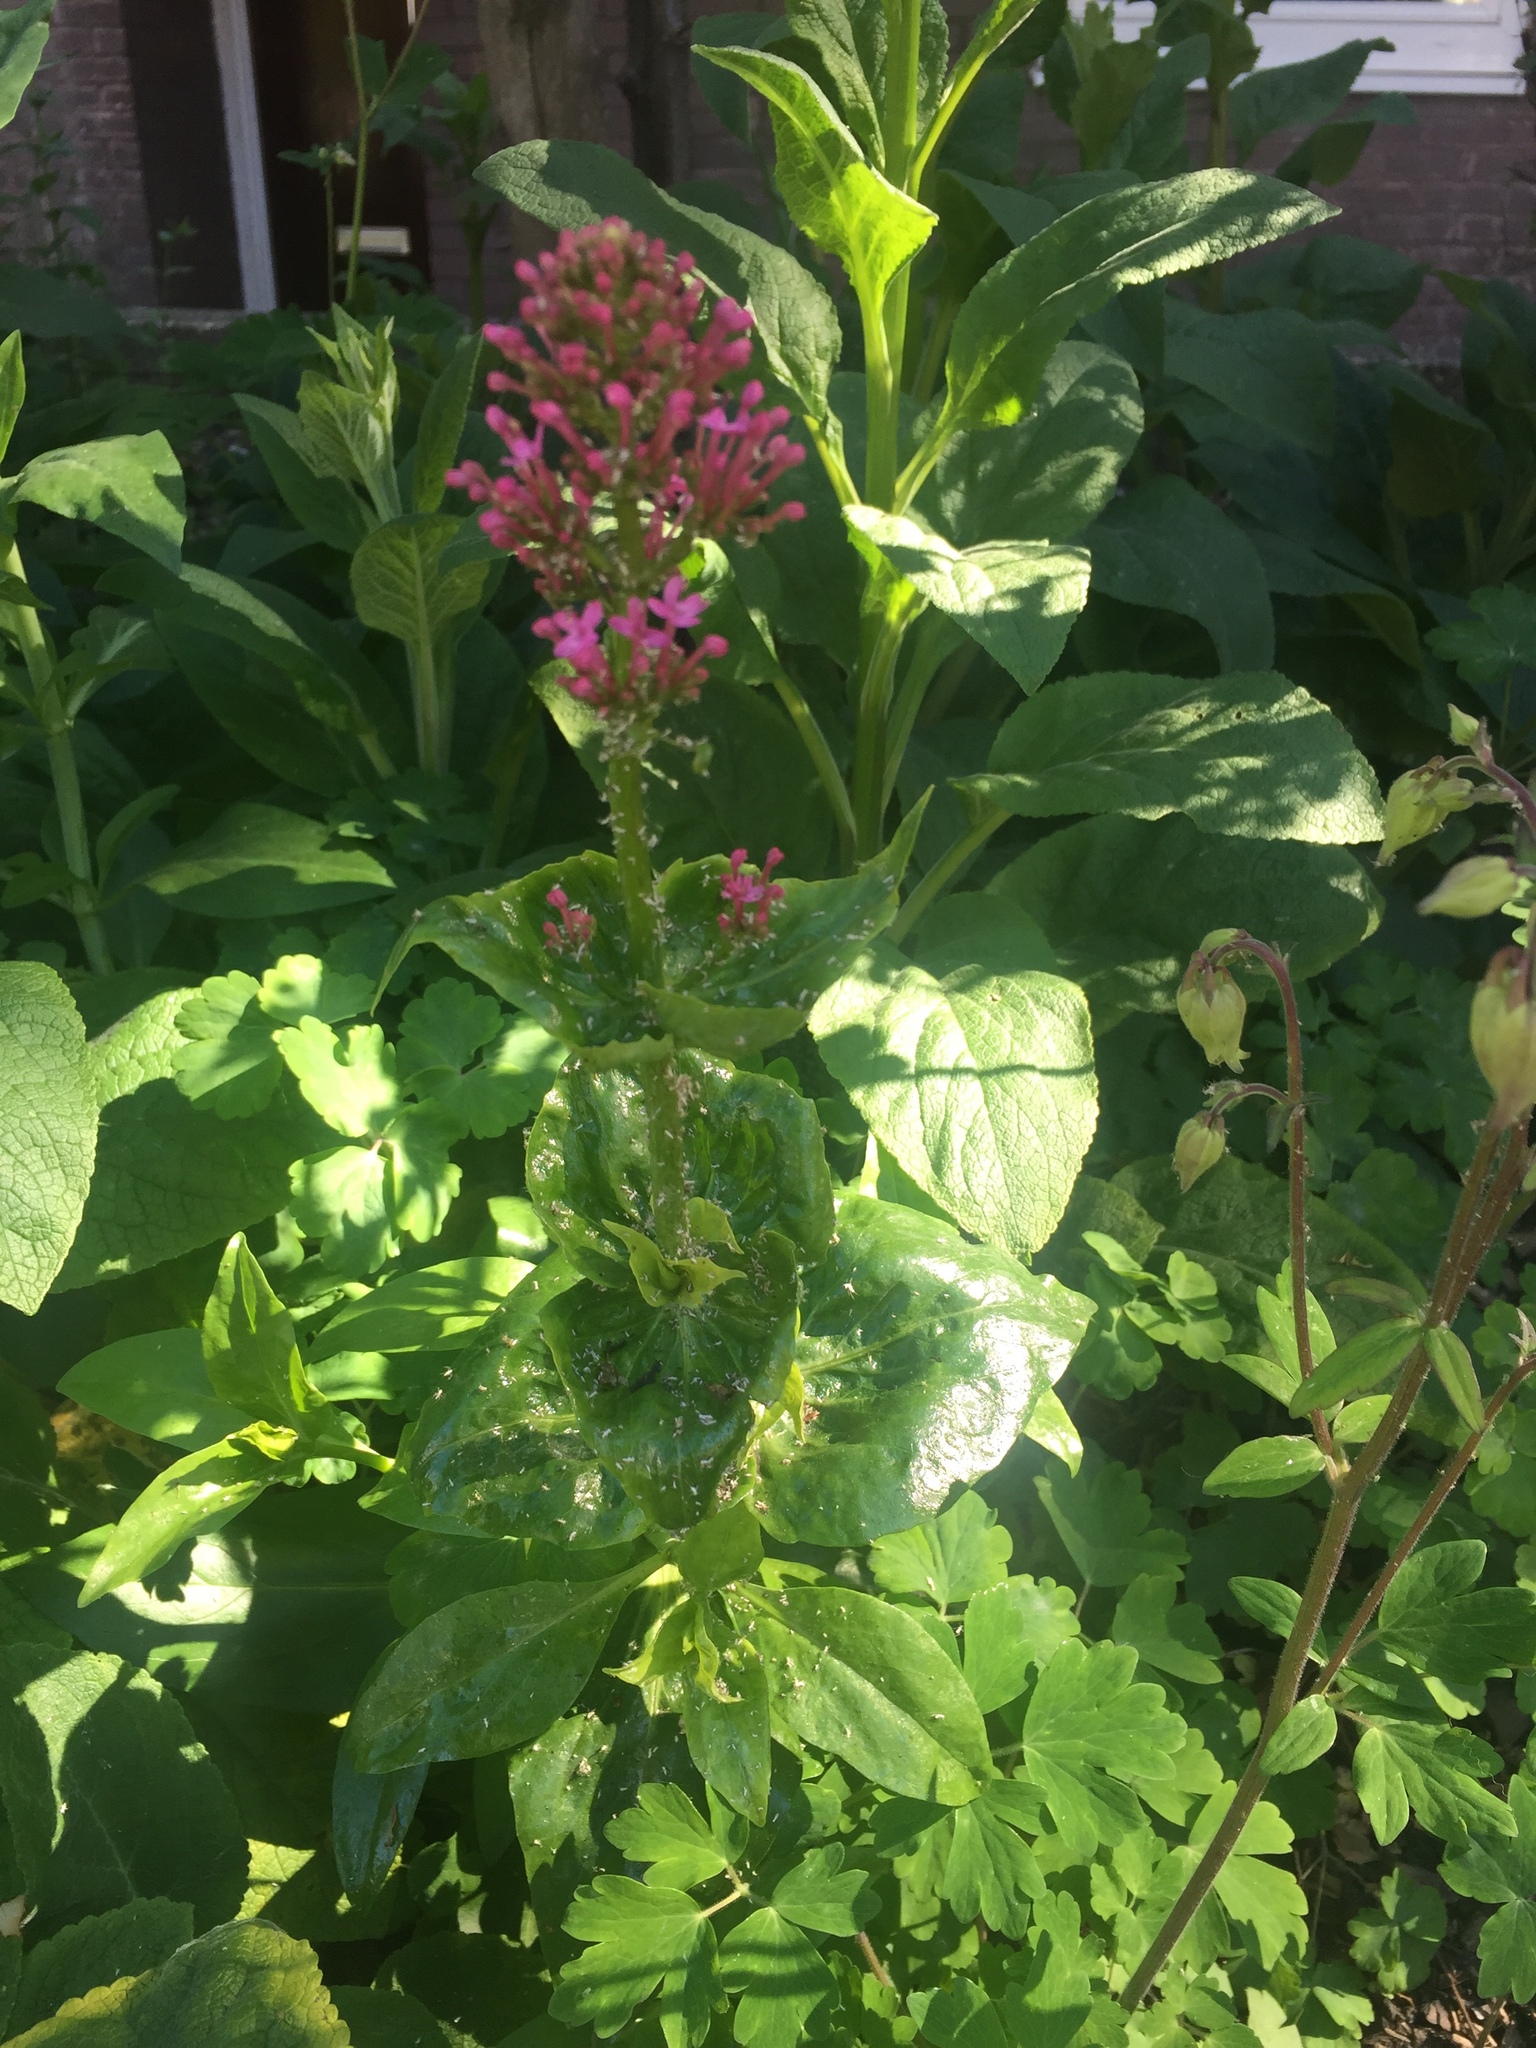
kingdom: Plantae
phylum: Tracheophyta
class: Magnoliopsida
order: Dipsacales
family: Caprifoliaceae
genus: Centranthus
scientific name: Centranthus ruber
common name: Red valerian
